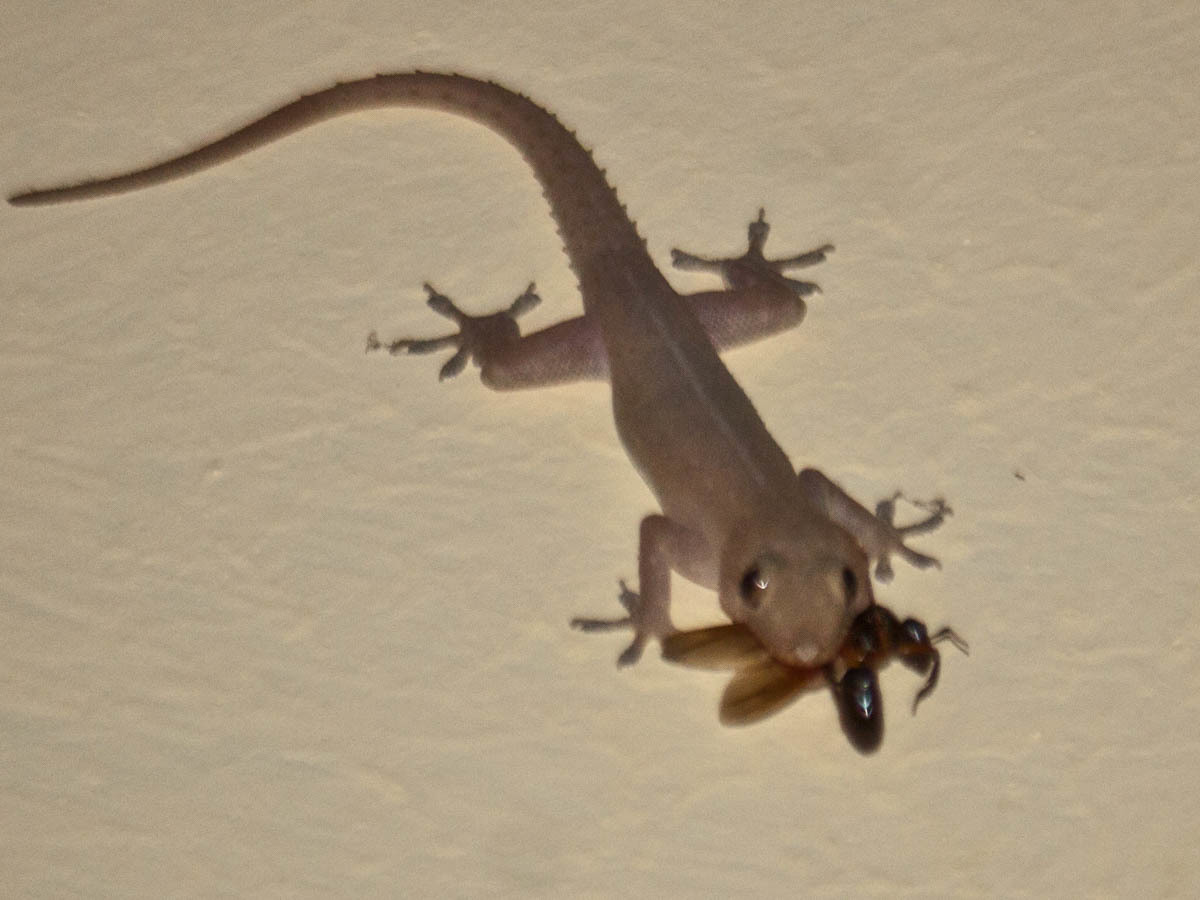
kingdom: Animalia
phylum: Chordata
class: Squamata
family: Gekkonidae
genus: Hemidactylus
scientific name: Hemidactylus frenatus
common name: Common house gecko
